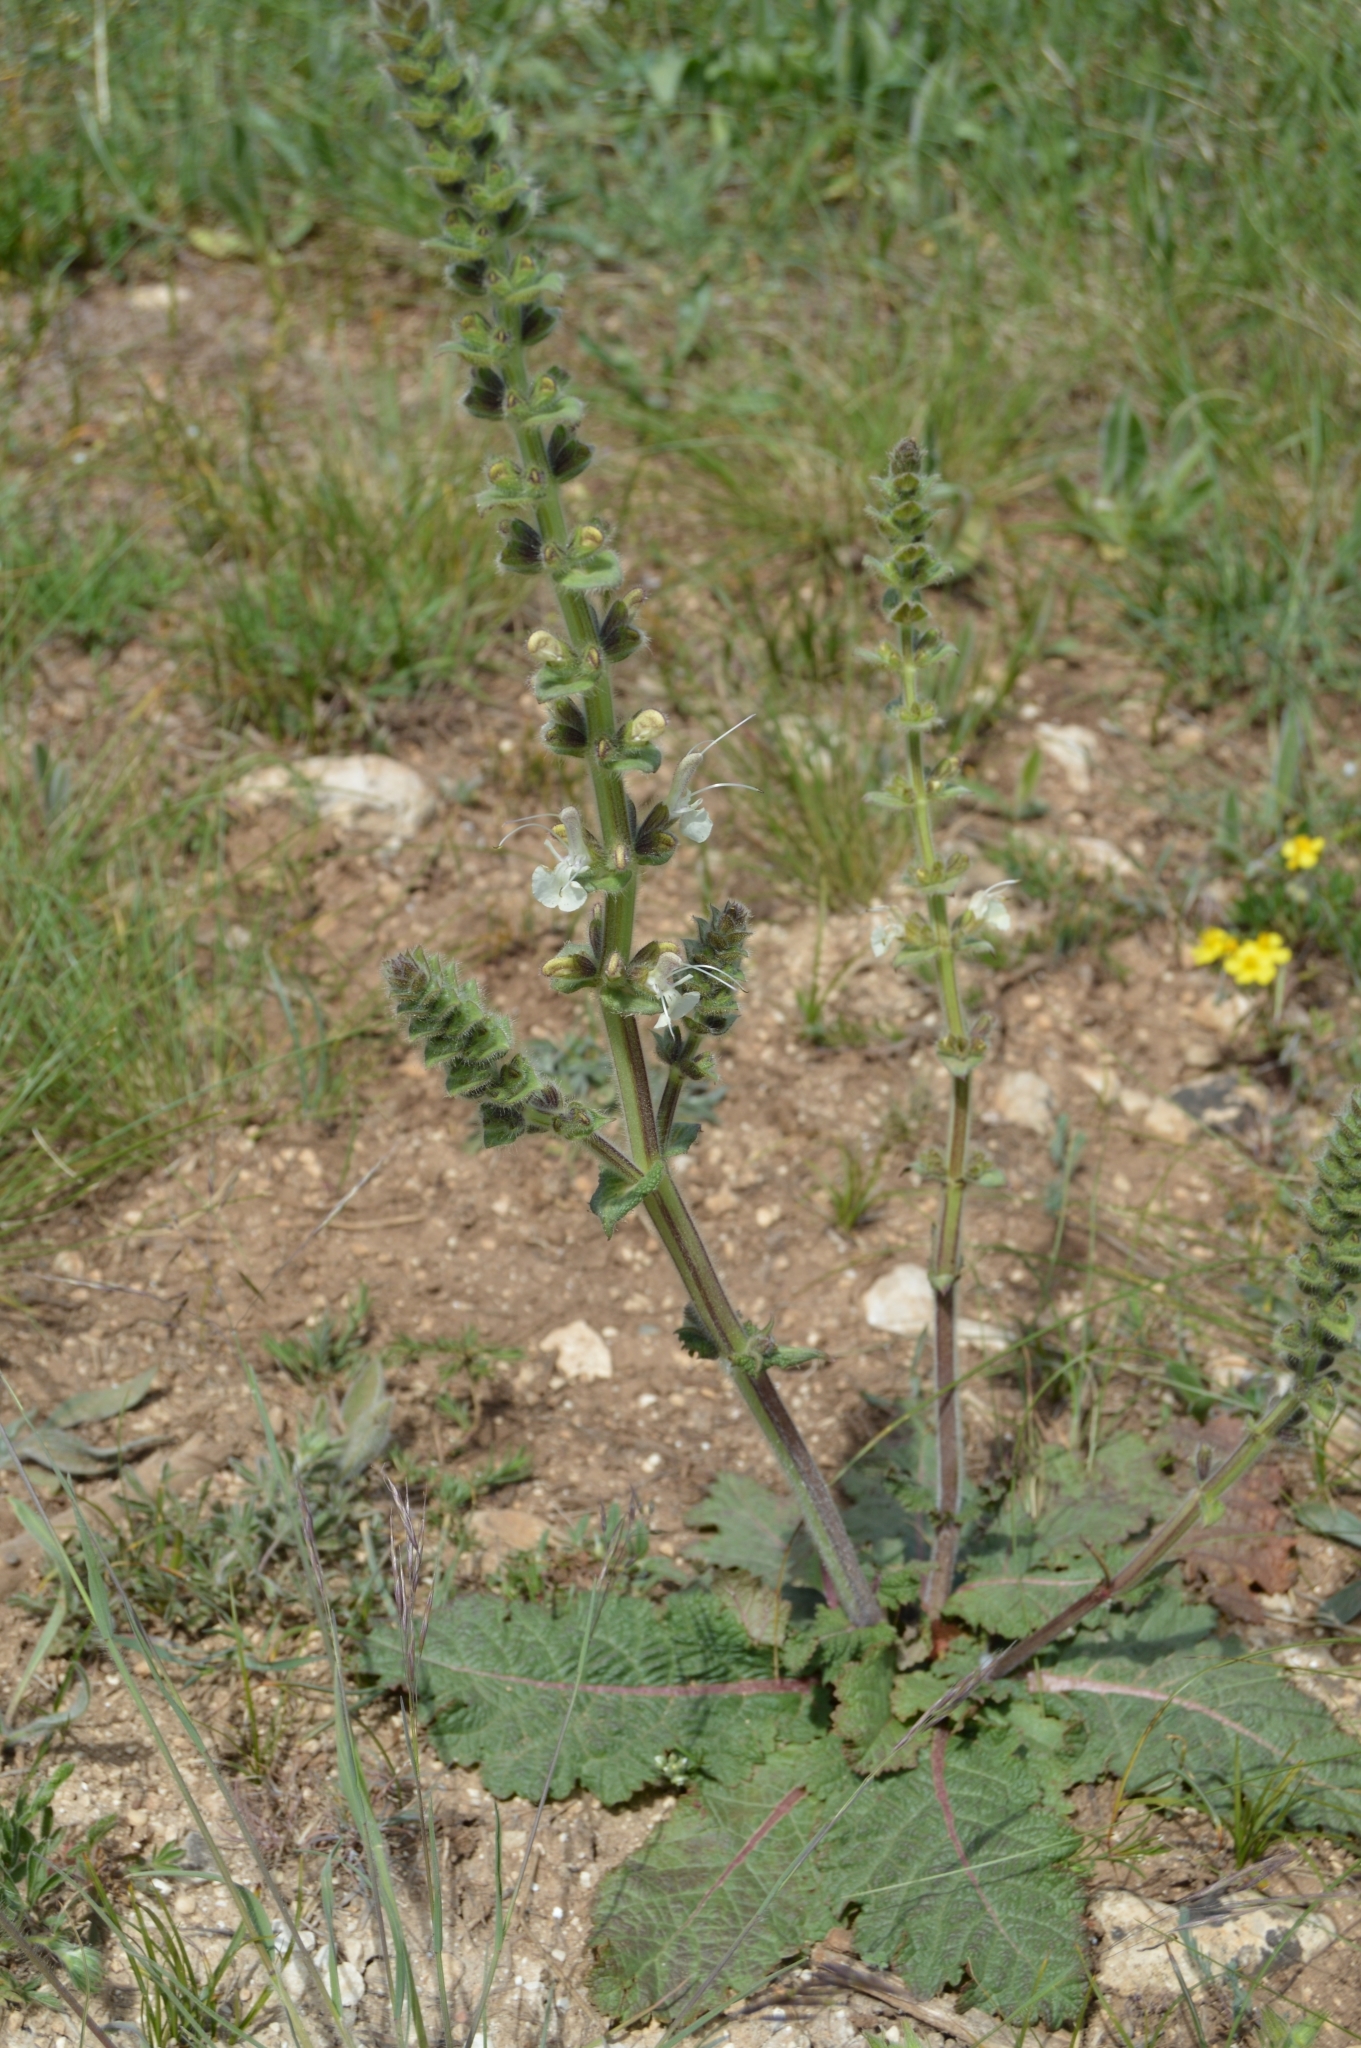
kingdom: Plantae
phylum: Tracheophyta
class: Magnoliopsida
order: Lamiales
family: Lamiaceae
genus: Salvia
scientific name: Salvia austriaca
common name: Austrian sage
